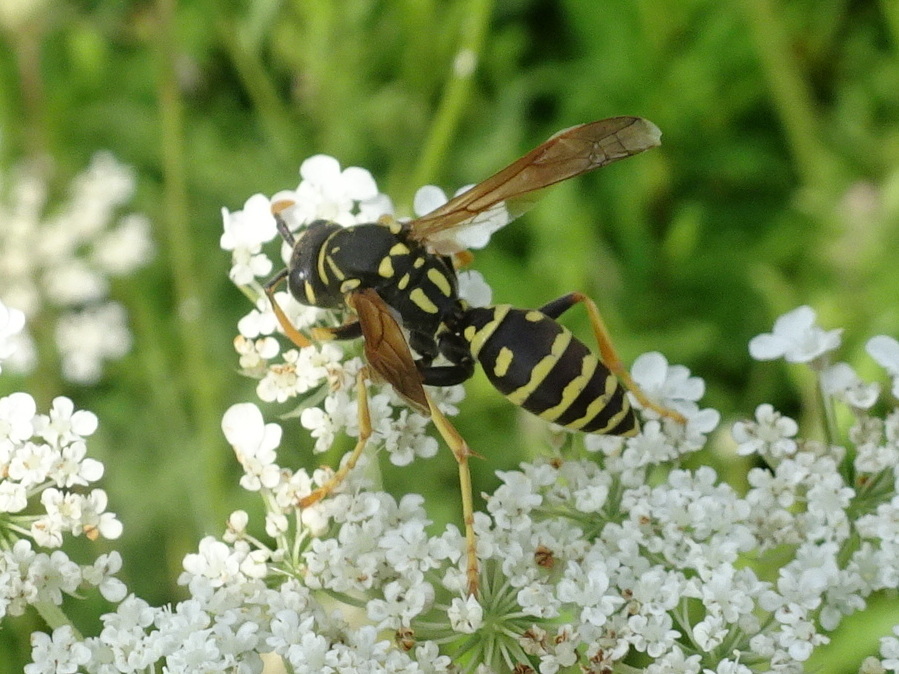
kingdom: Animalia
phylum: Arthropoda
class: Insecta
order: Hymenoptera
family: Eumenidae
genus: Polistes
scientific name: Polistes dominula
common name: Paper wasp
